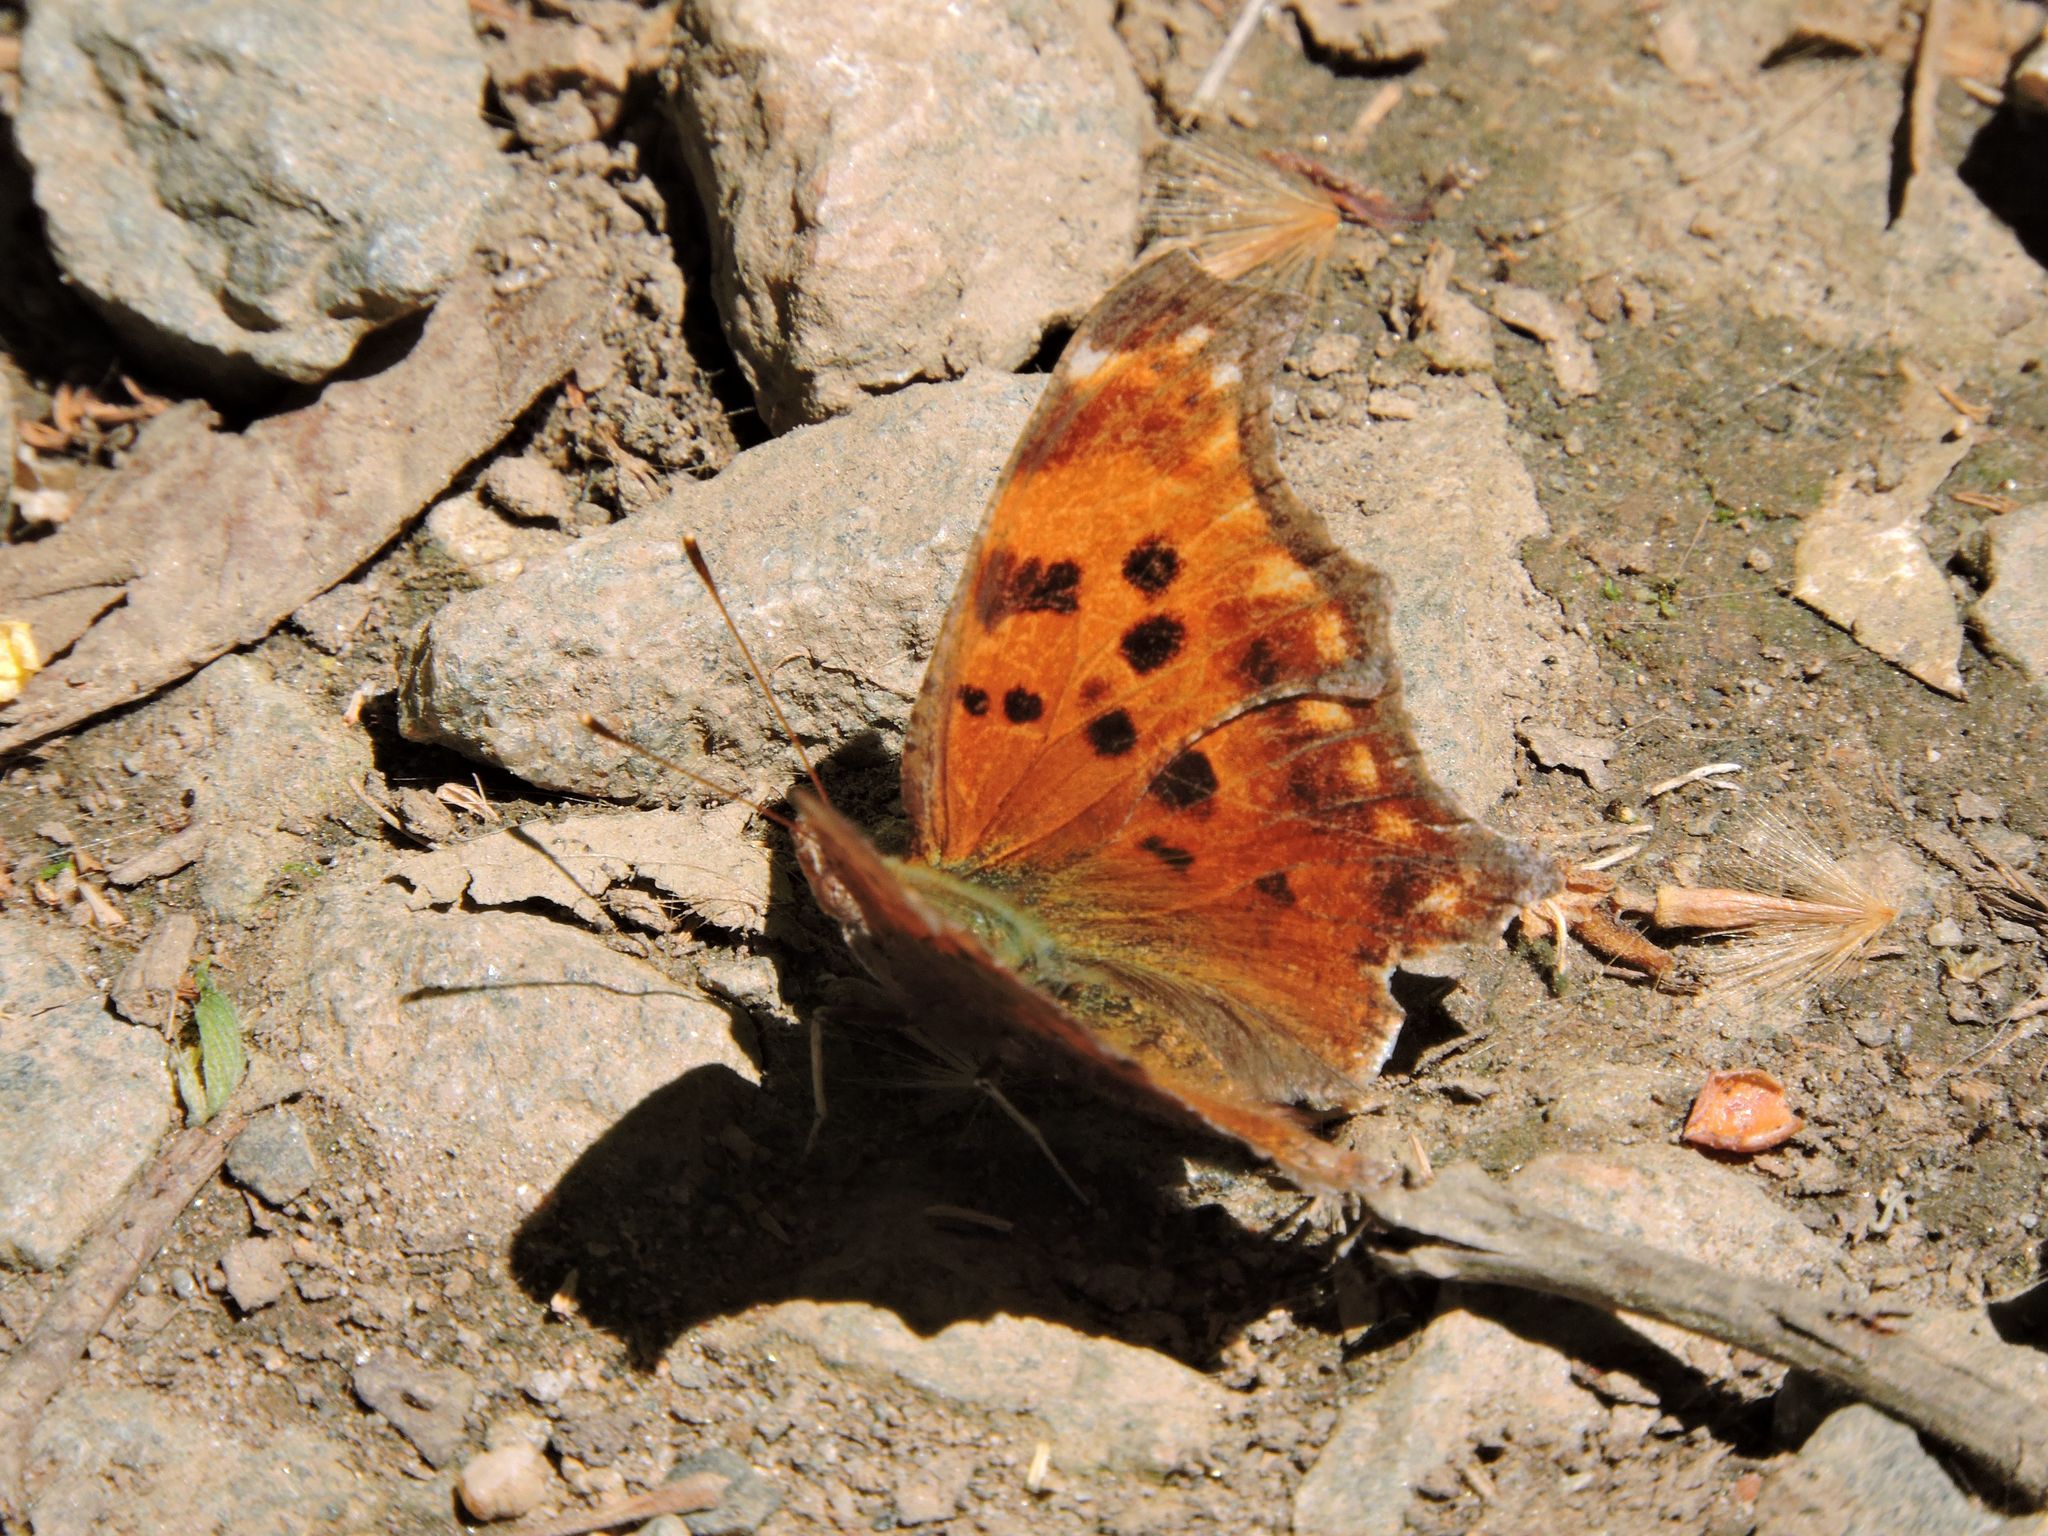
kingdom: Animalia
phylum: Arthropoda
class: Insecta
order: Lepidoptera
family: Nymphalidae
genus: Polygonia
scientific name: Polygonia comma
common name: Eastern comma
